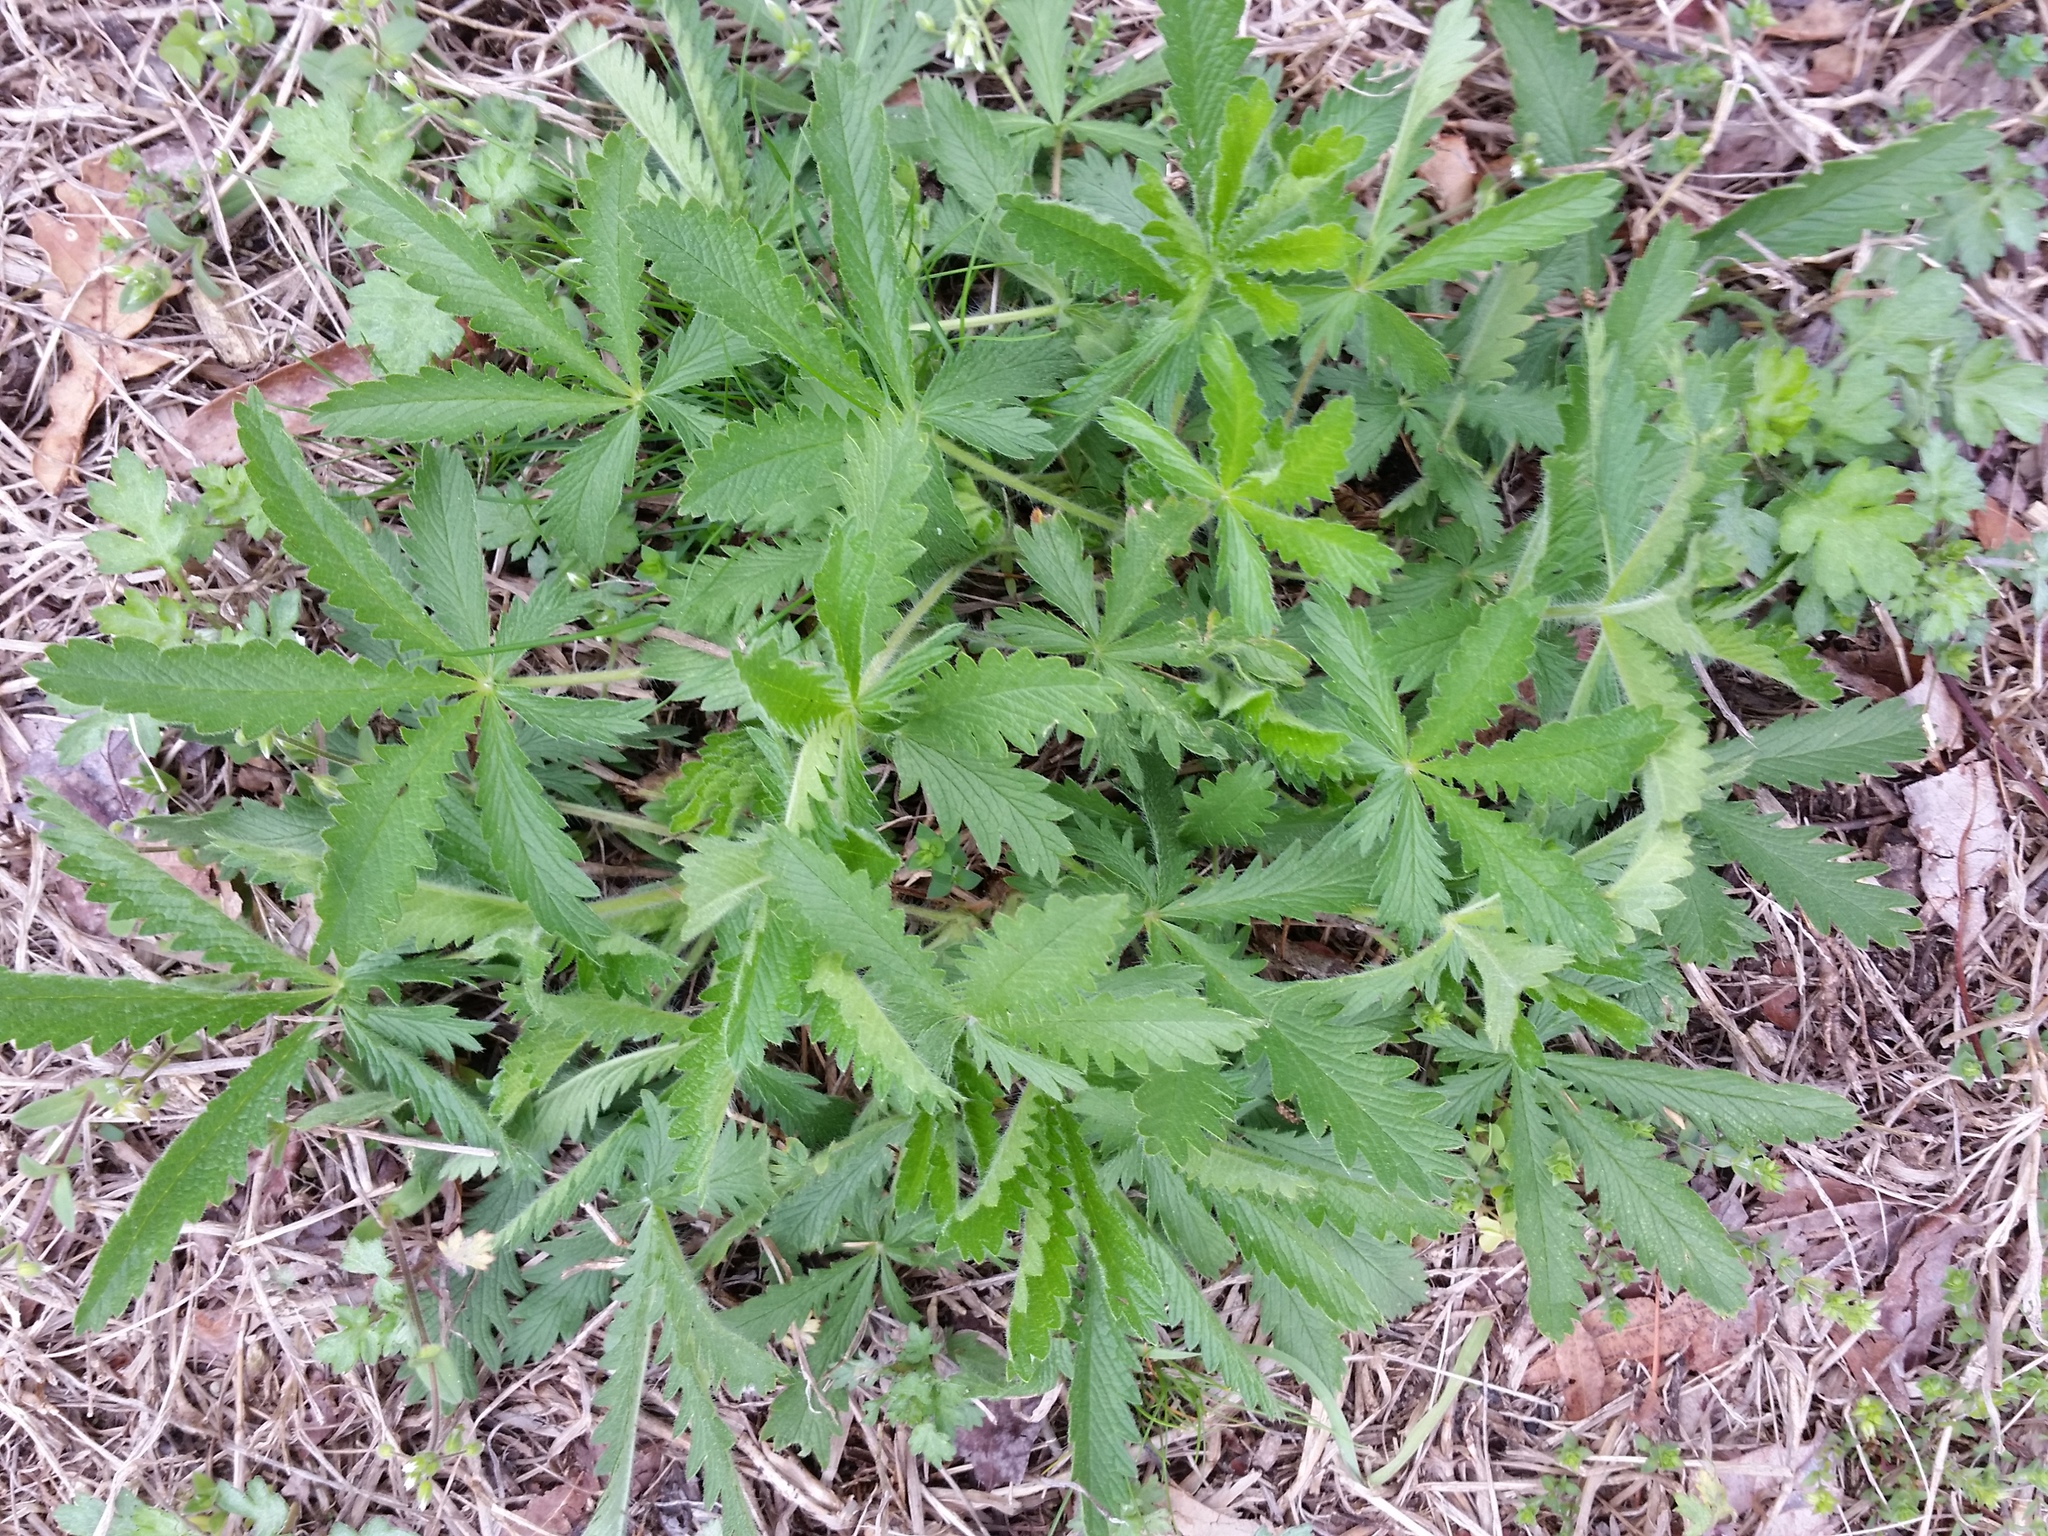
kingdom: Plantae
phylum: Tracheophyta
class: Magnoliopsida
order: Rosales
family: Rosaceae
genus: Potentilla
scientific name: Potentilla recta
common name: Sulphur cinquefoil
